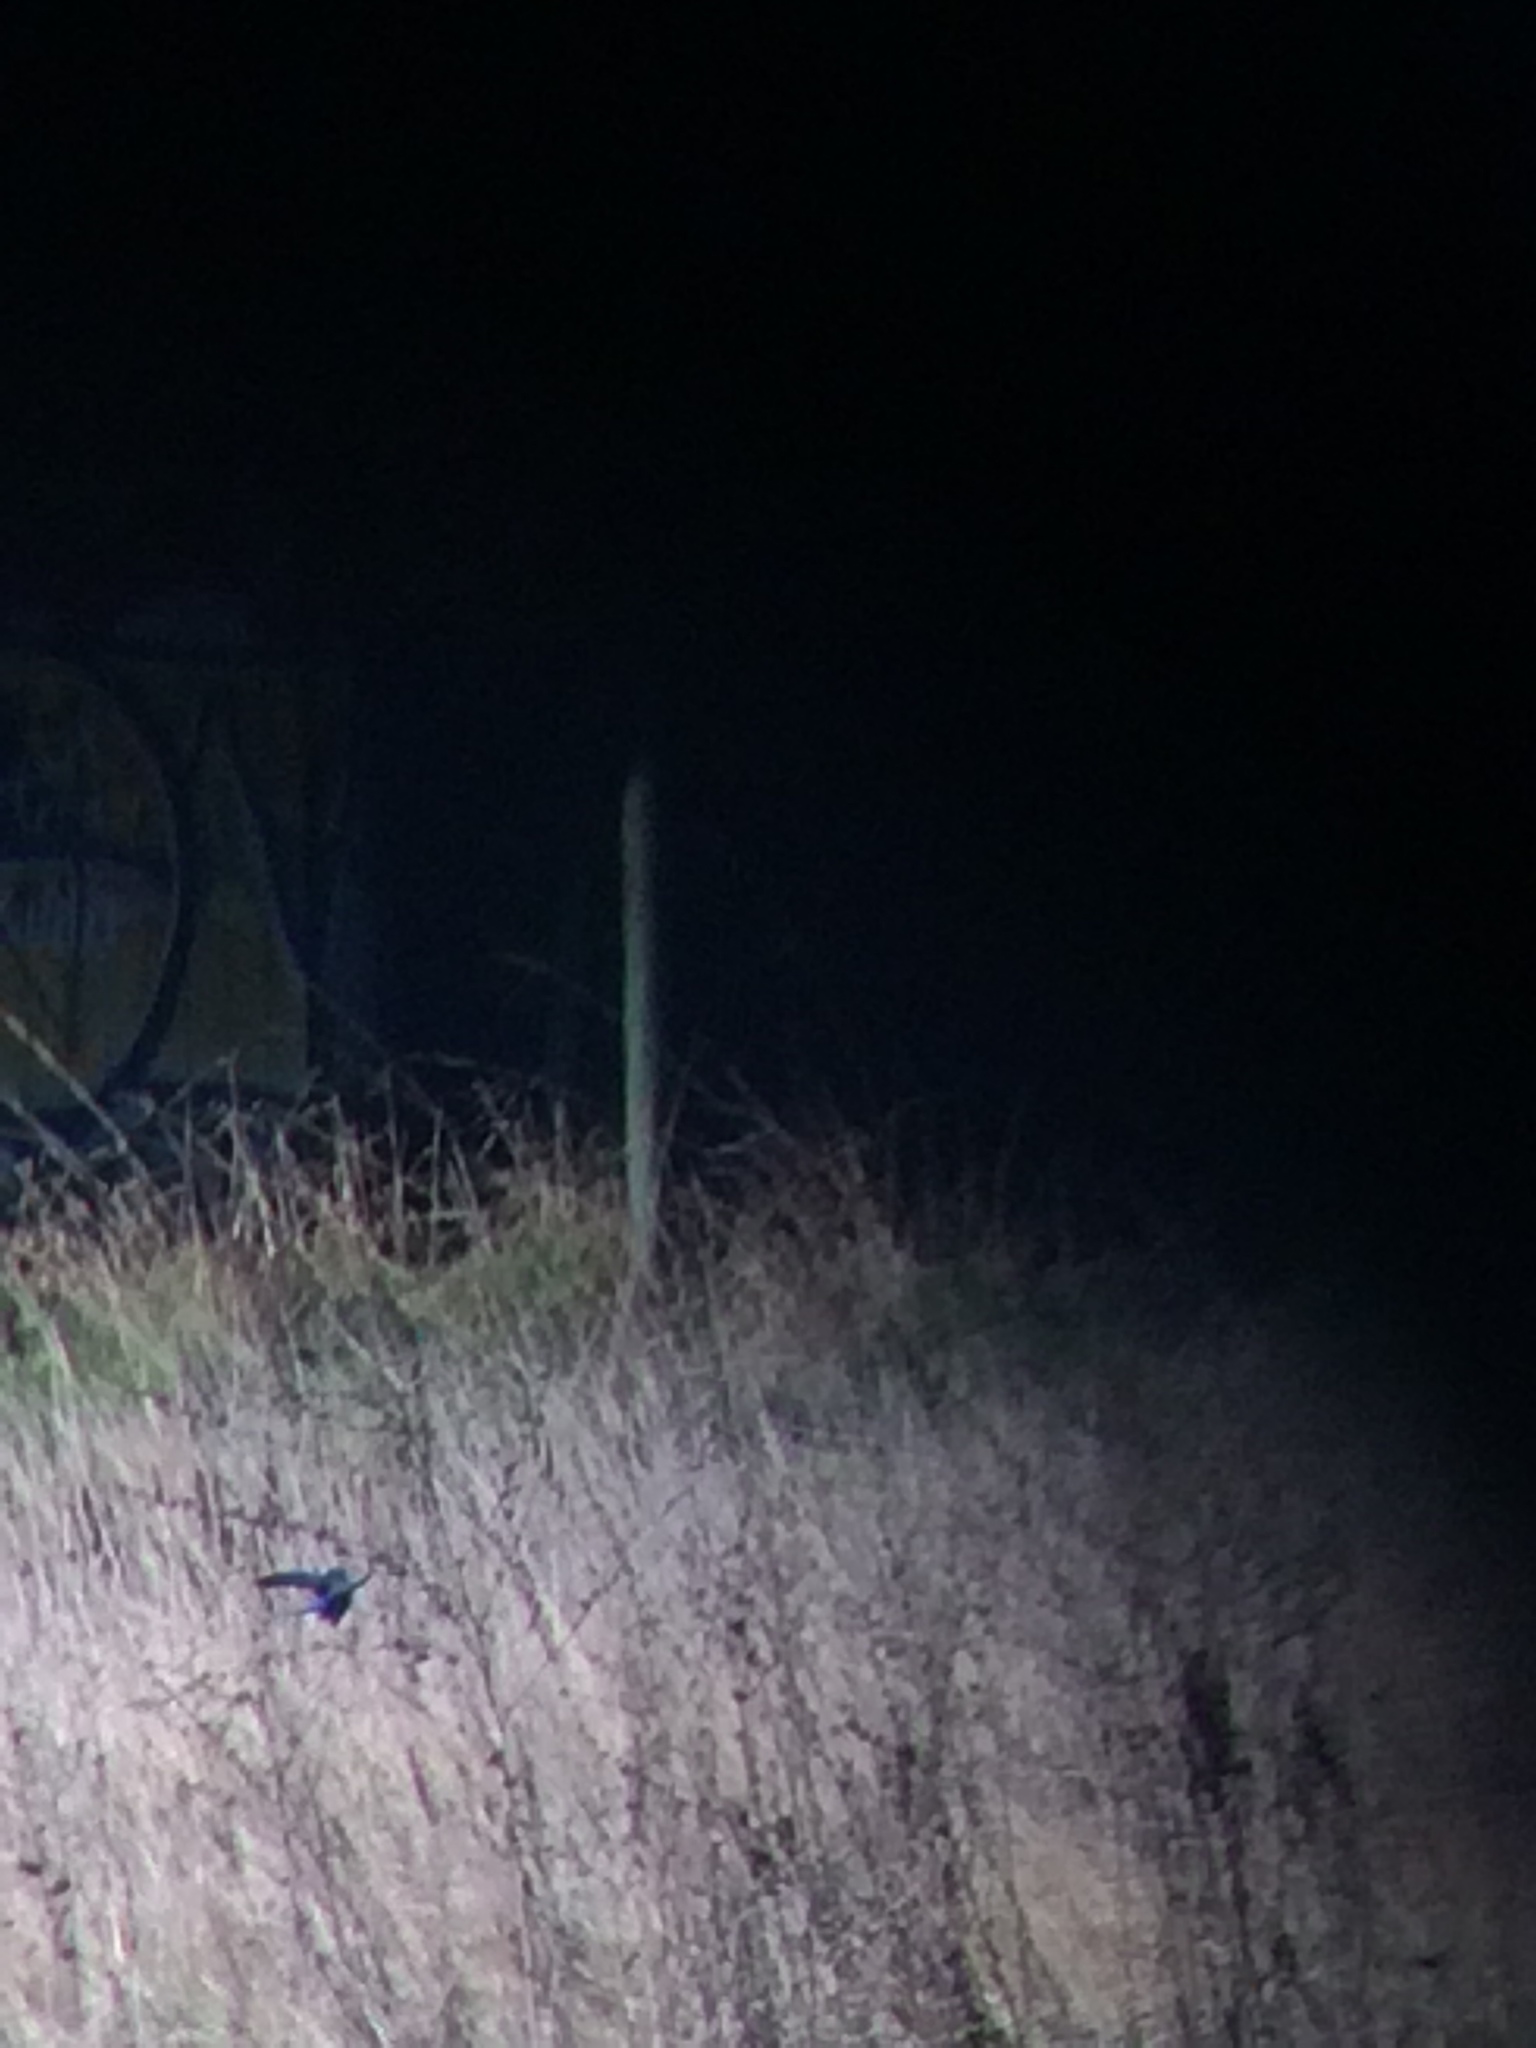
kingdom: Animalia
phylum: Chordata
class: Aves
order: Passeriformes
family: Turdidae
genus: Sialia
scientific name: Sialia sialis
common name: Eastern bluebird
